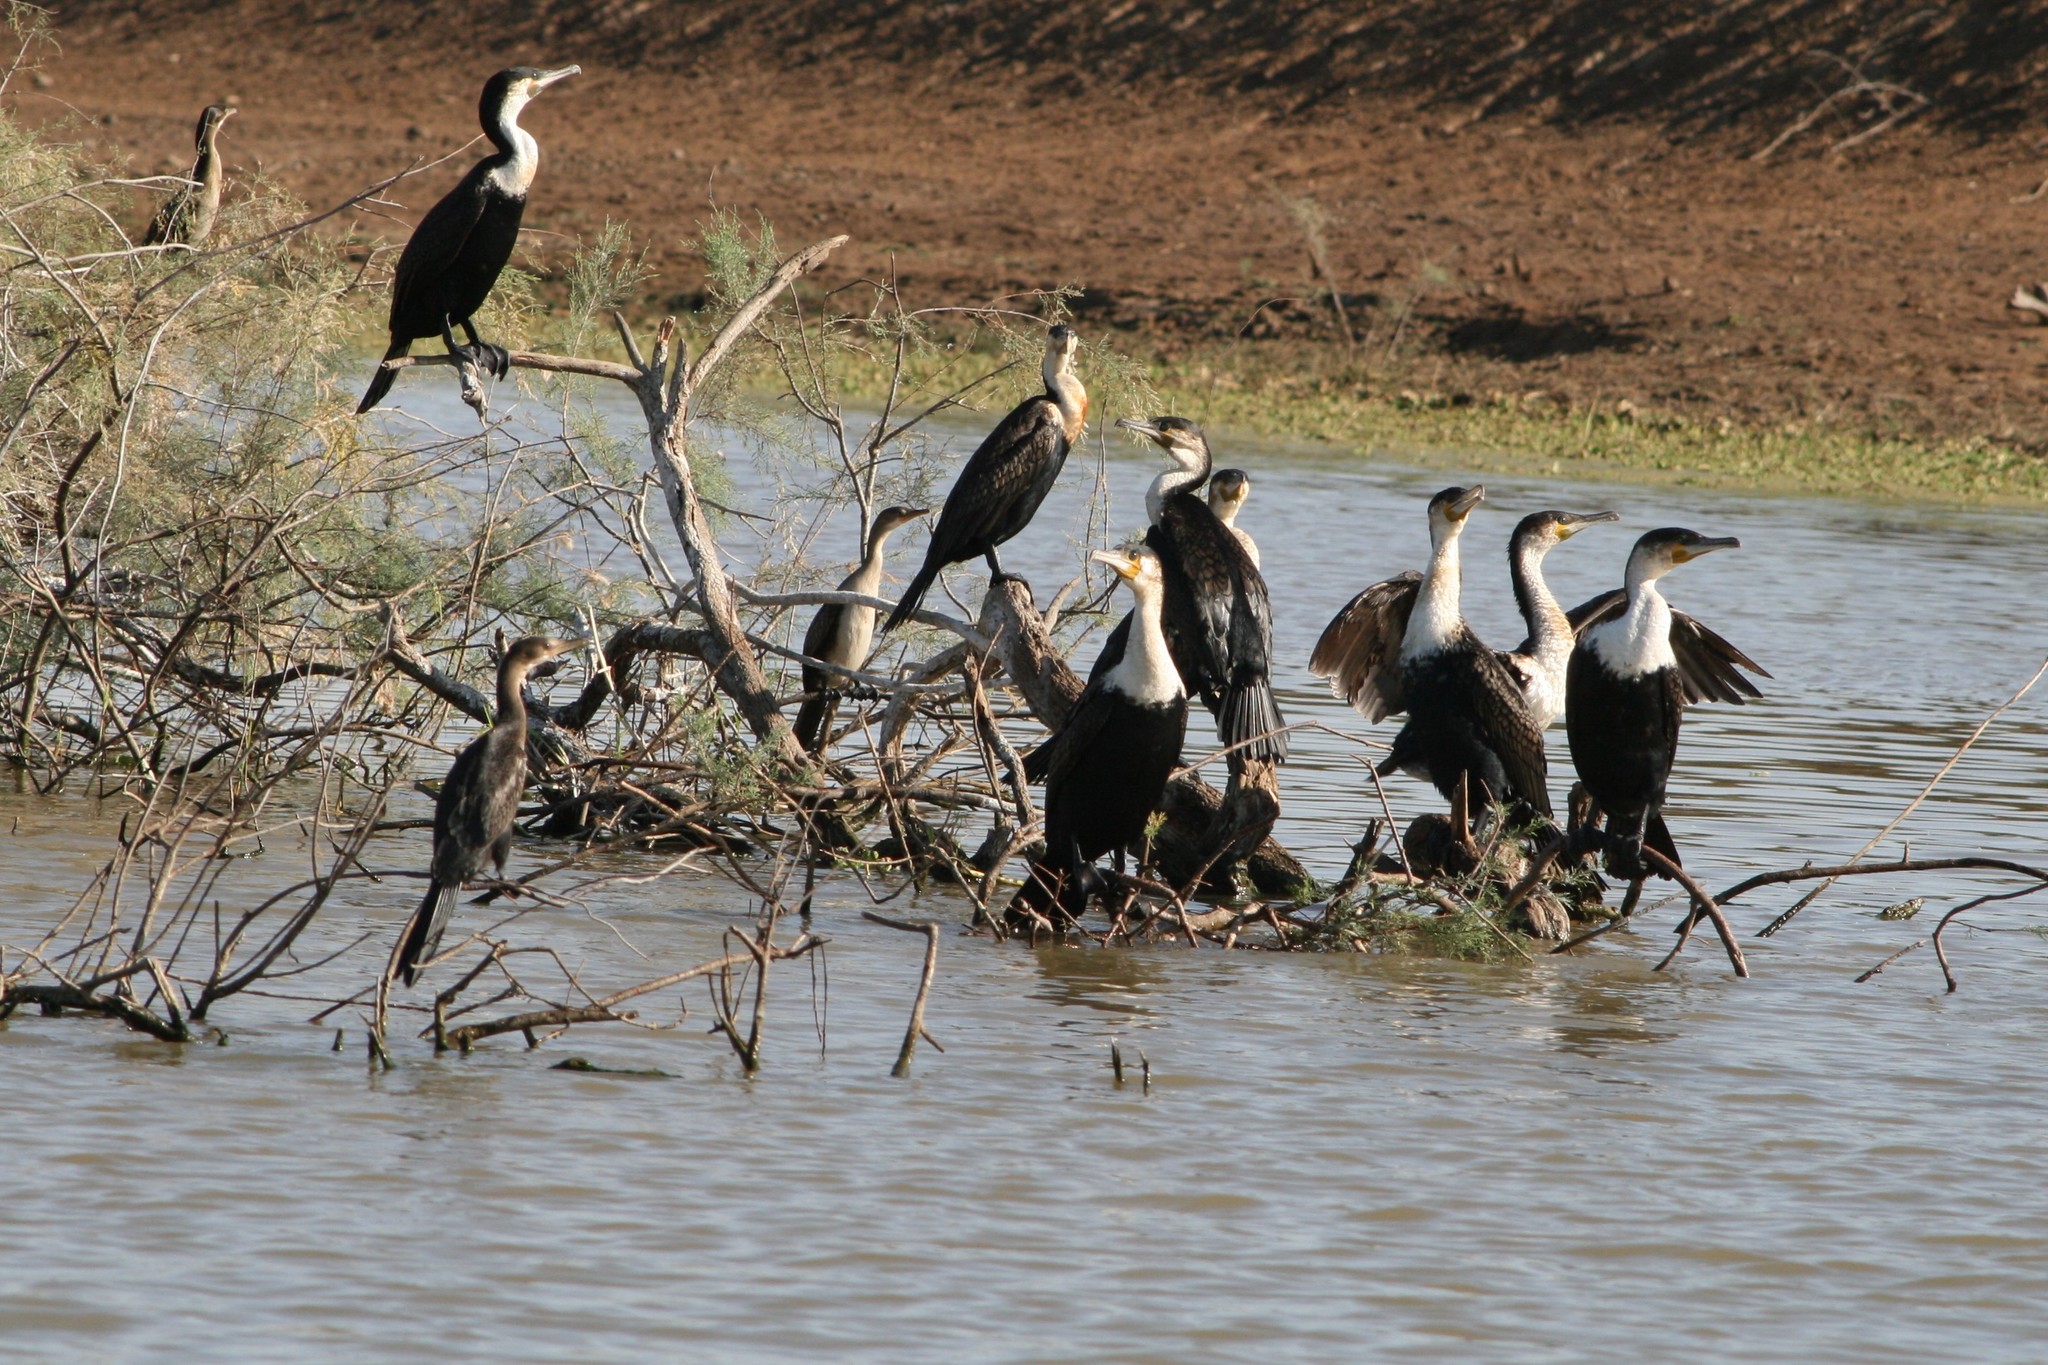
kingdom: Animalia
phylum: Chordata
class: Aves
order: Suliformes
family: Phalacrocoracidae
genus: Phalacrocorax
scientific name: Phalacrocorax carbo
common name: Great cormorant
